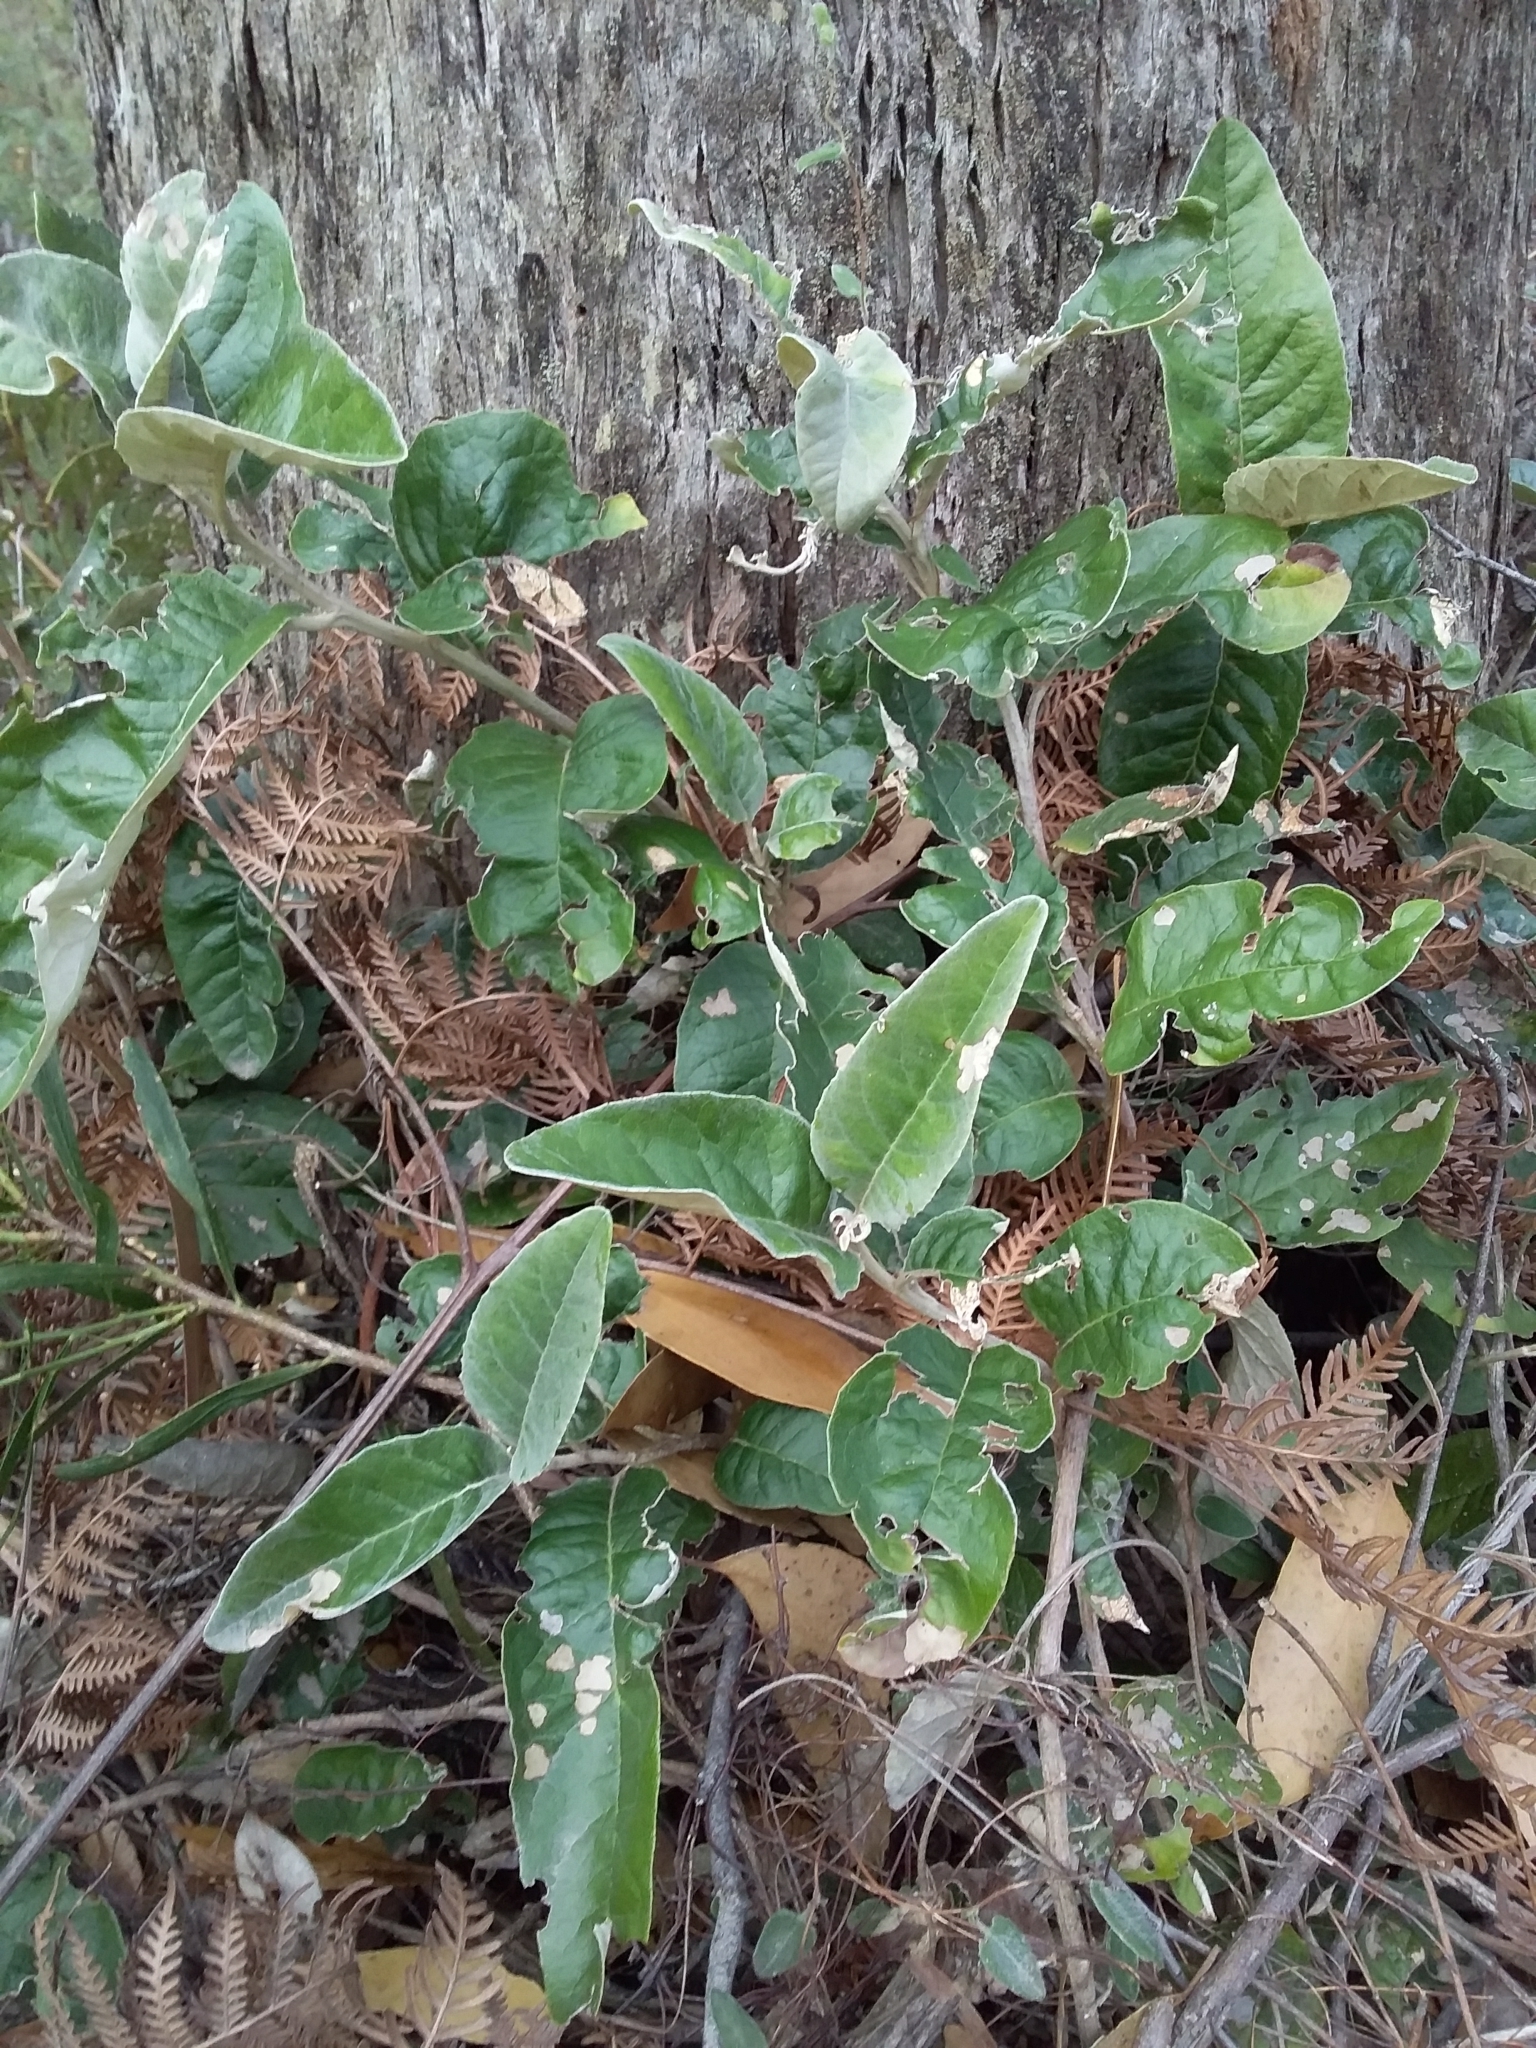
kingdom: Plantae
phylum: Tracheophyta
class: Magnoliopsida
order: Asterales
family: Asteraceae
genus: Olearia
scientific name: Olearia grandiflora
